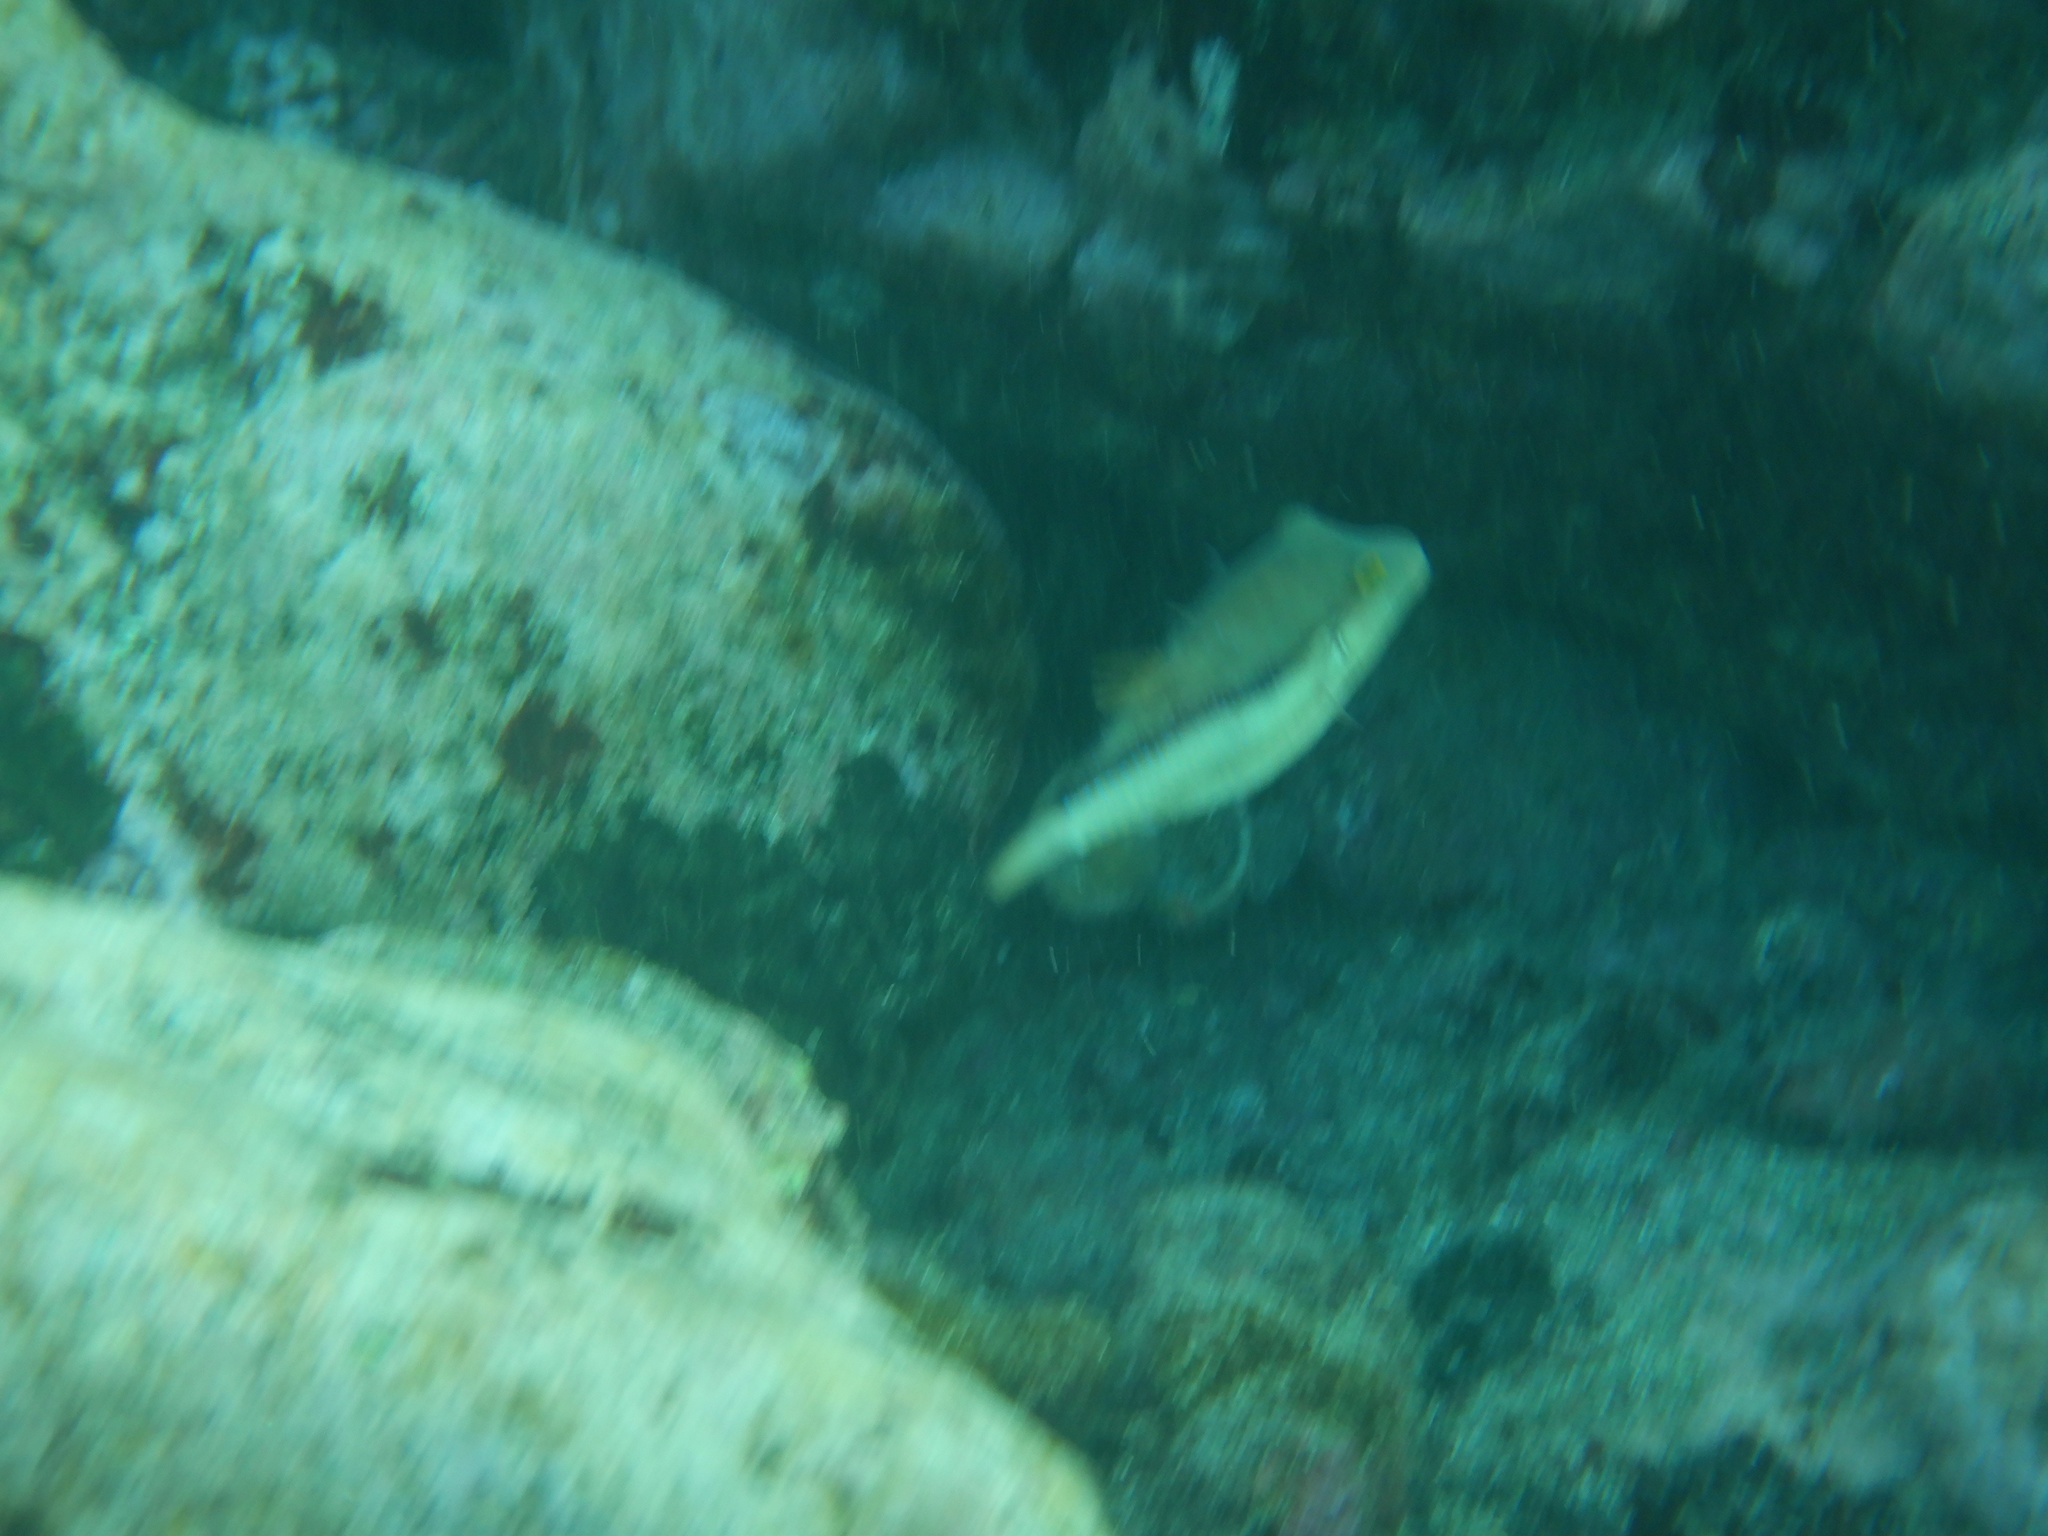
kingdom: Animalia
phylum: Chordata
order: Tetraodontiformes
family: Tetraodontidae
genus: Canthigaster
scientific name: Canthigaster capistrata
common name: Macaronesian sharpnose-puffer
